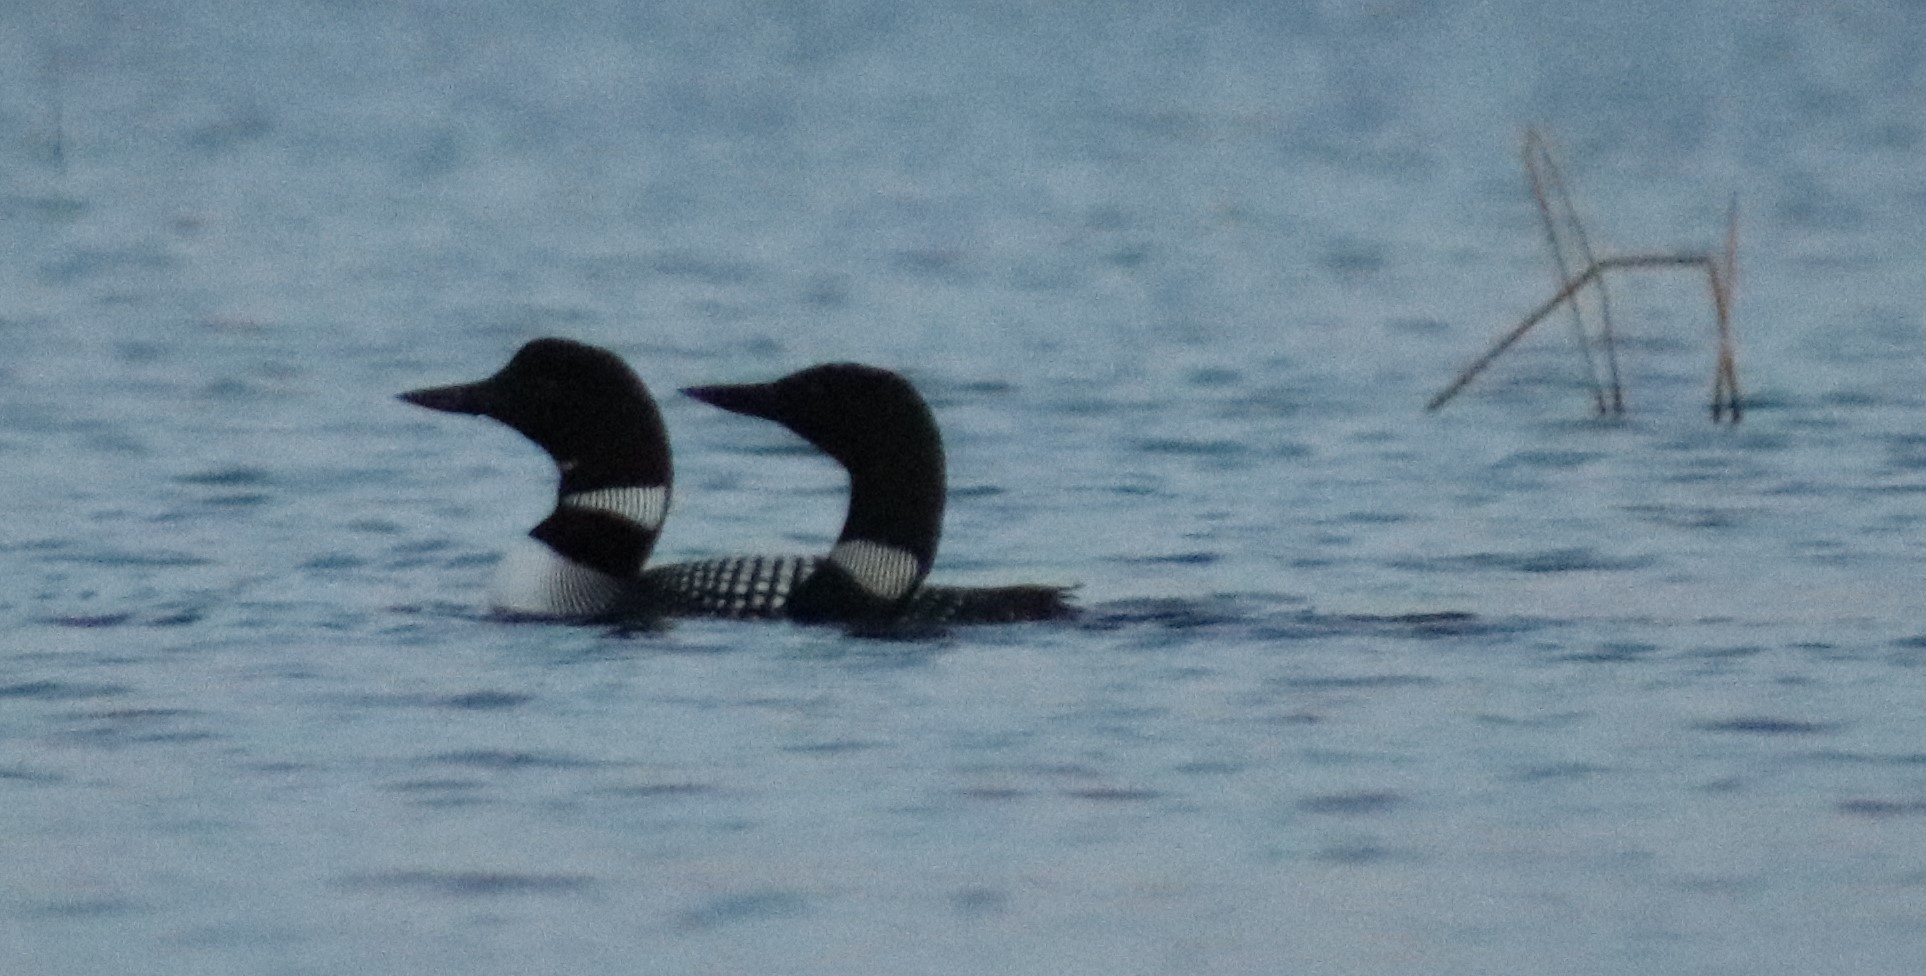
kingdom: Animalia
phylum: Chordata
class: Aves
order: Gaviiformes
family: Gaviidae
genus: Gavia
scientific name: Gavia immer
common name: Common loon
